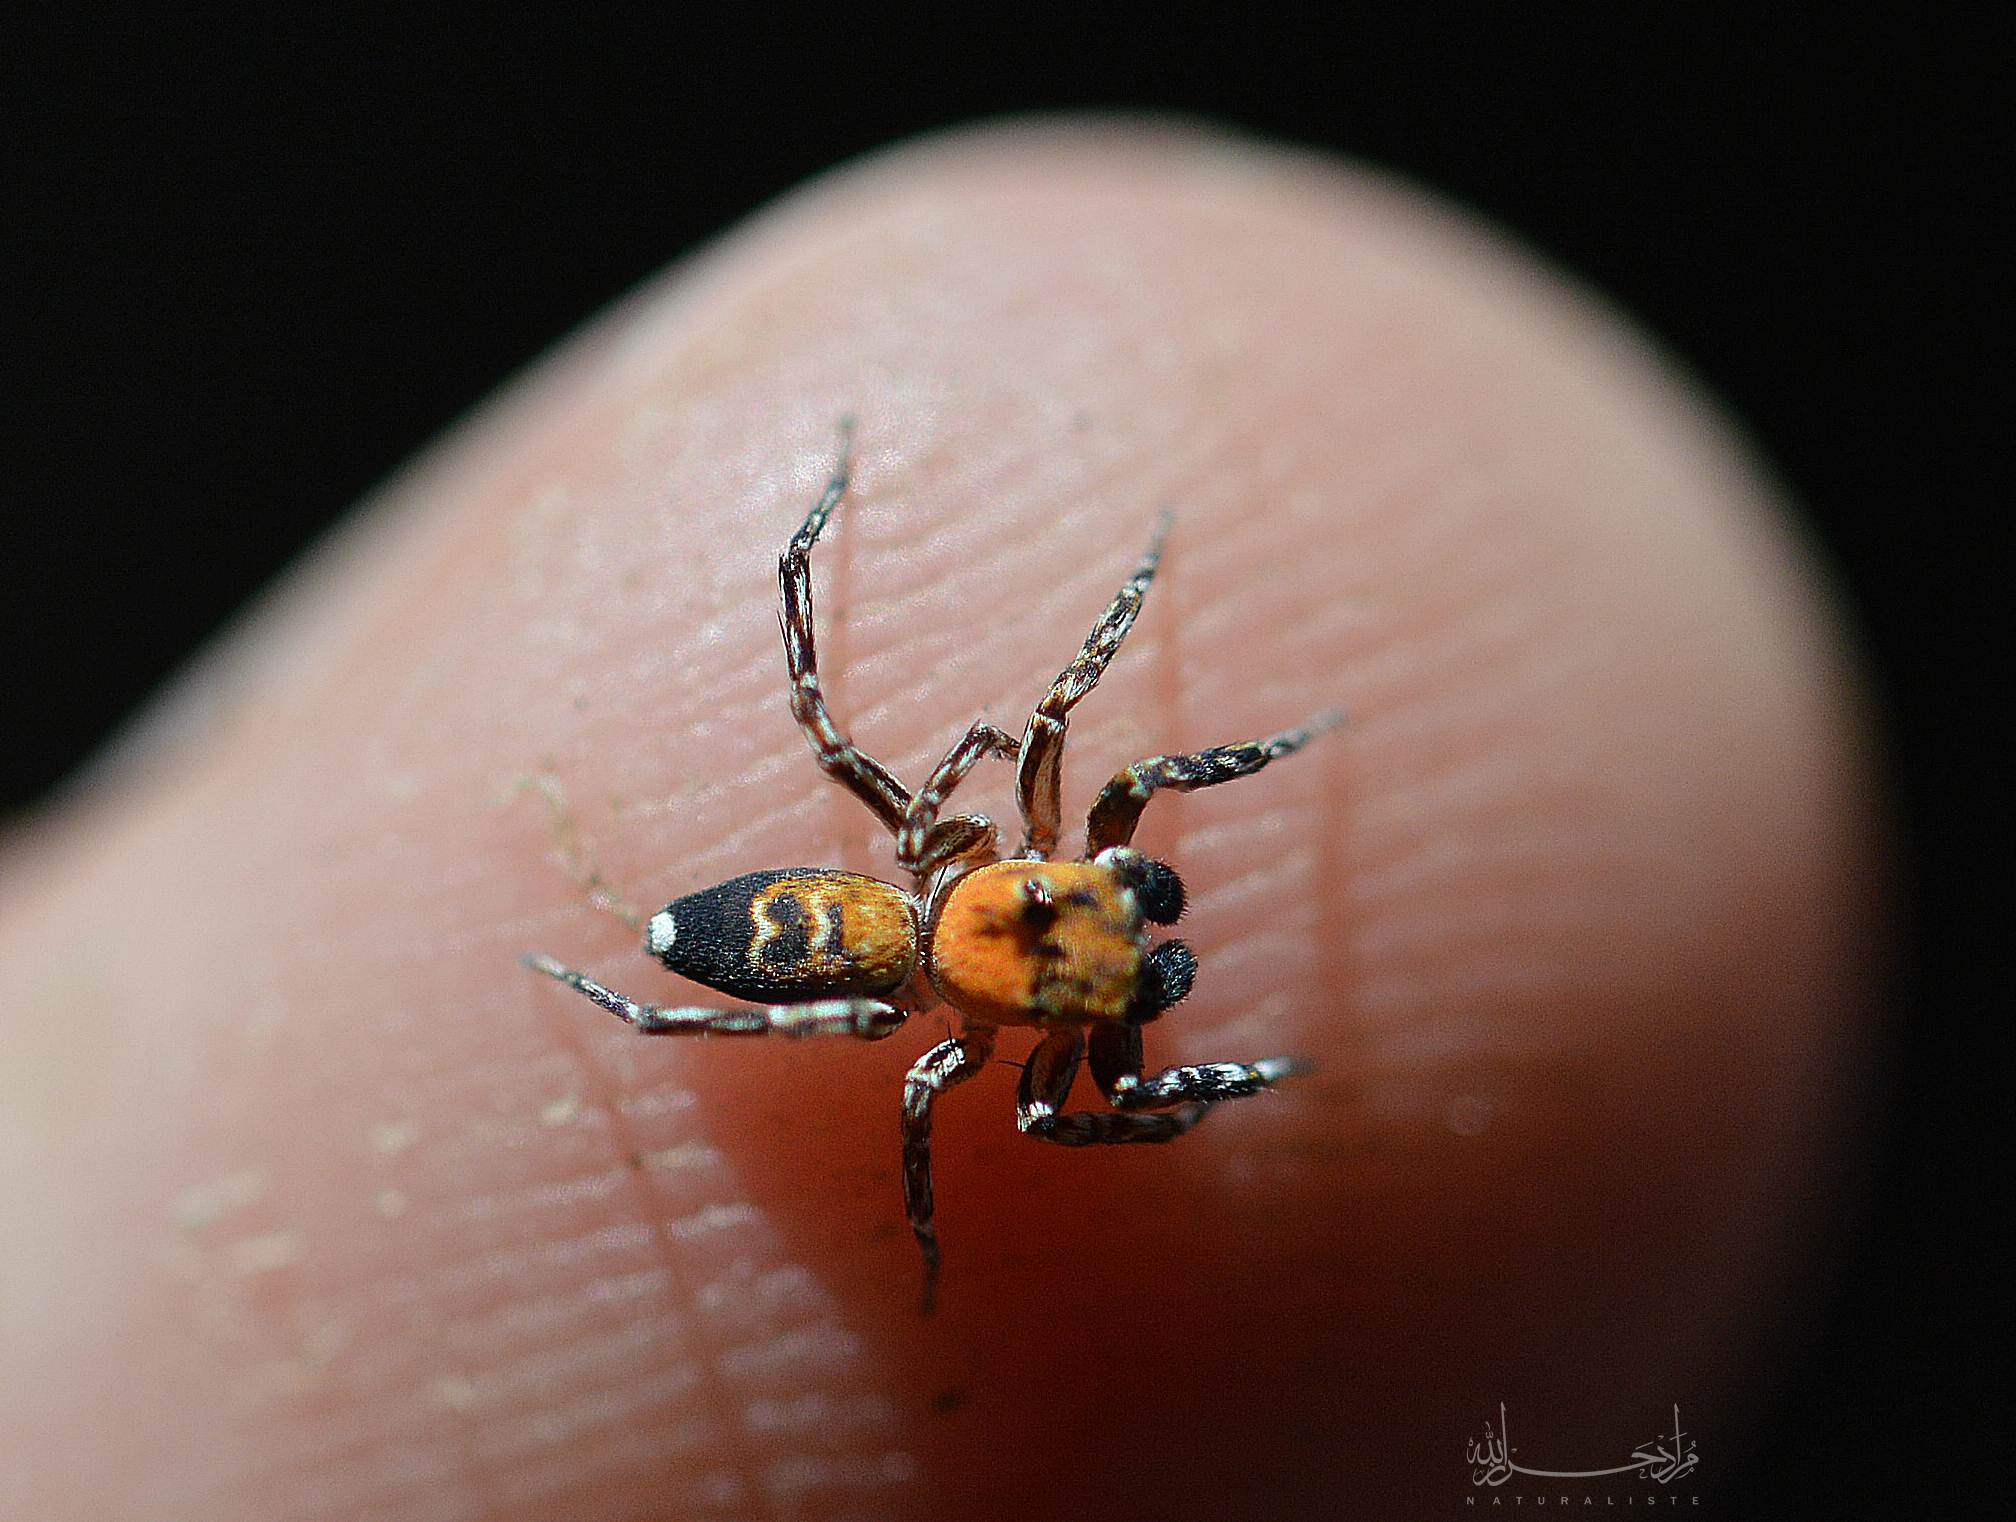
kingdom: Animalia
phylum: Arthropoda
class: Arachnida
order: Araneae
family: Salticidae
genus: Cyrba
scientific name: Cyrba algerina
